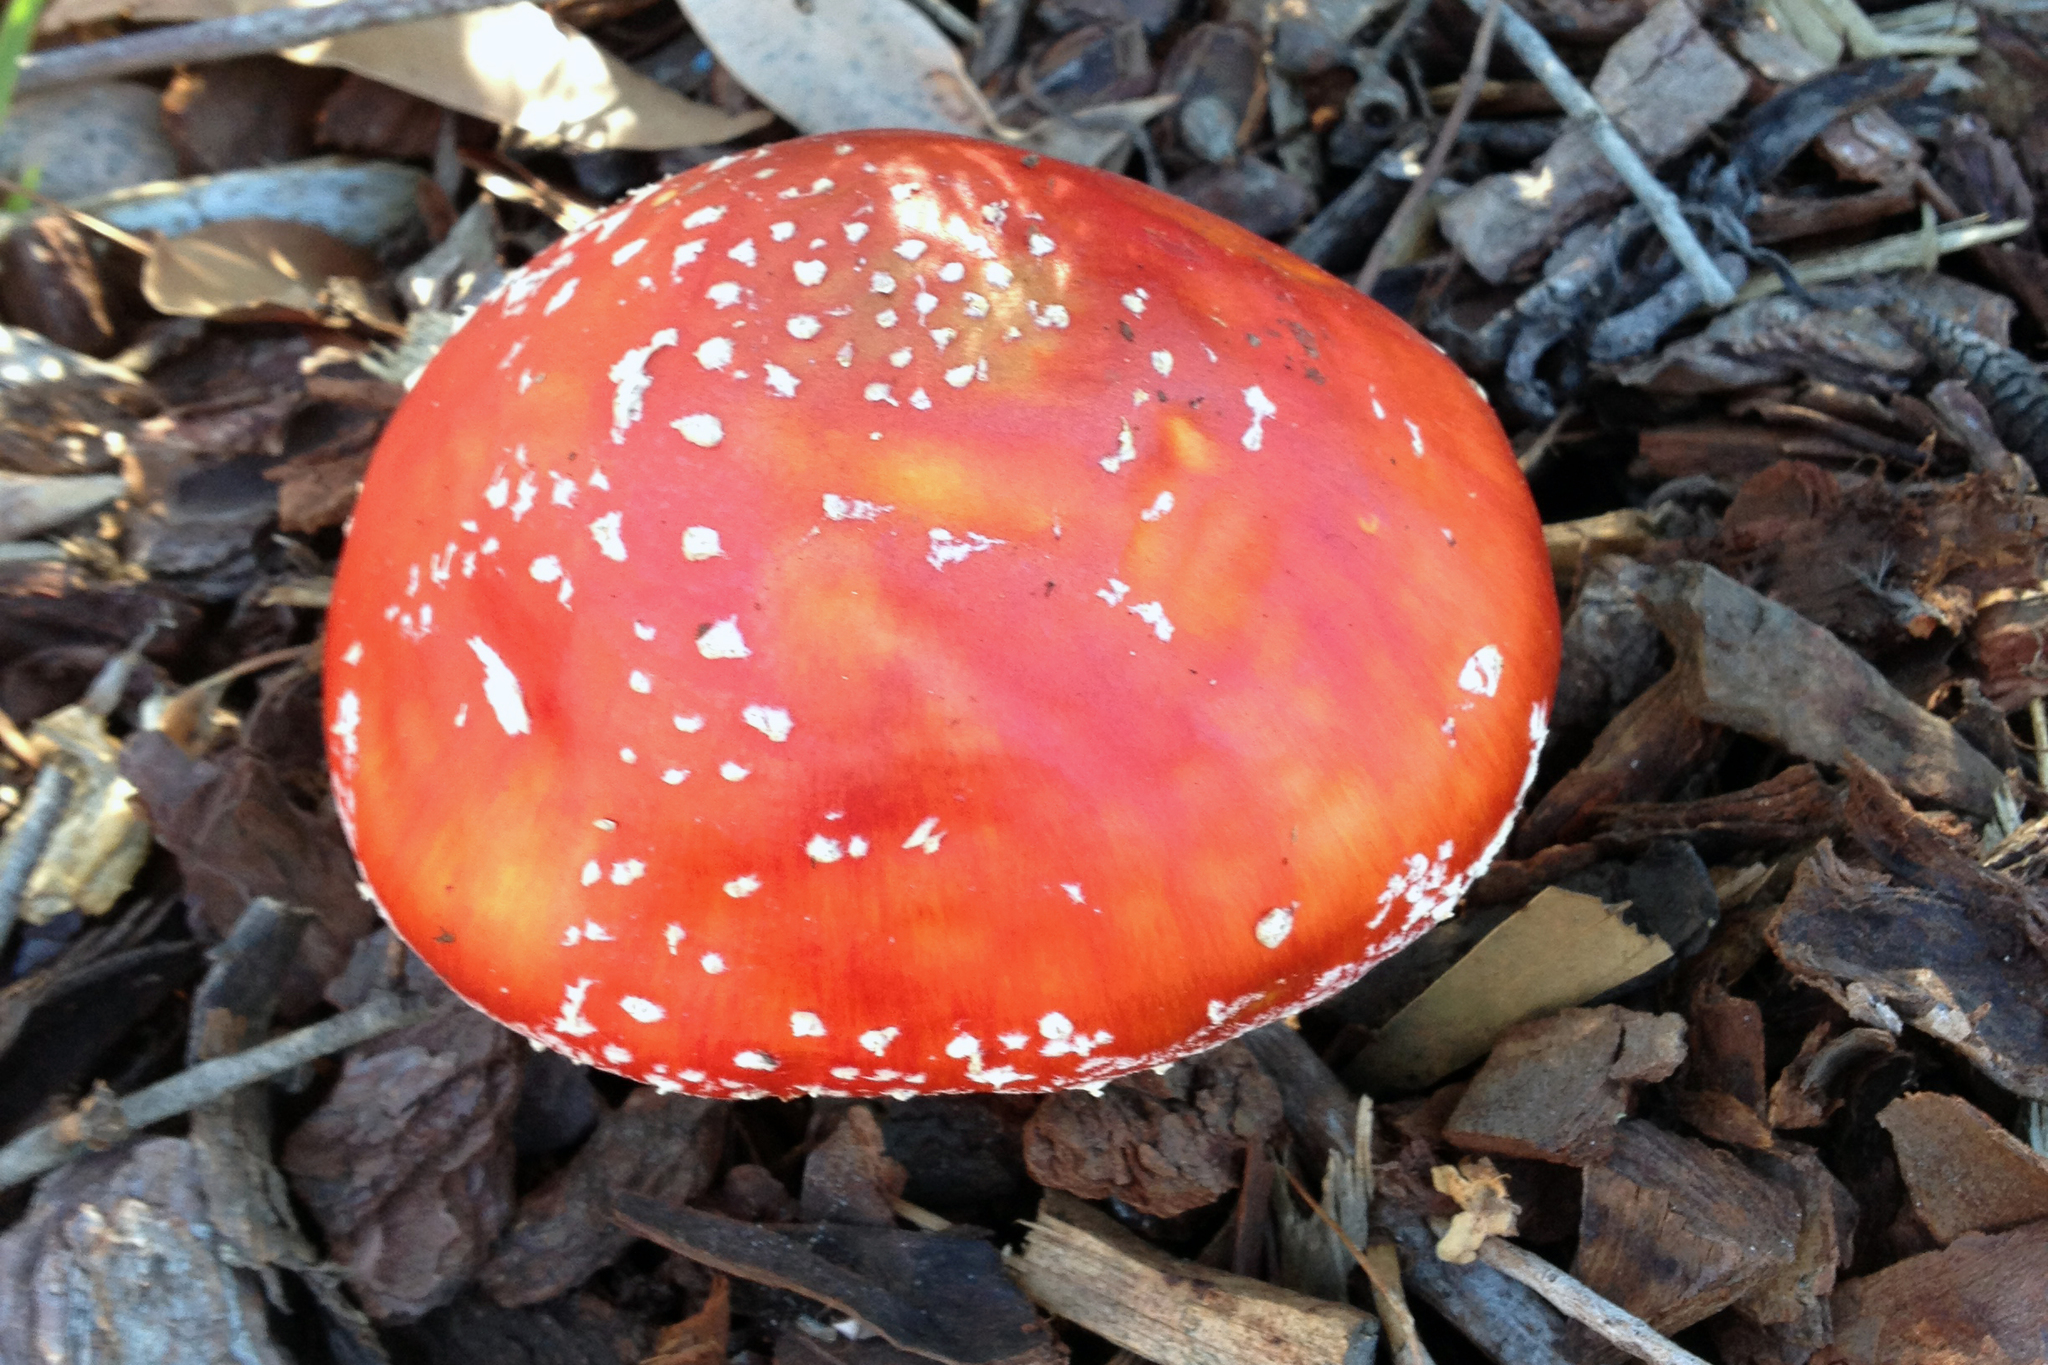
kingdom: Fungi
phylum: Basidiomycota
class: Agaricomycetes
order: Agaricales
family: Amanitaceae
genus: Amanita
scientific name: Amanita muscaria
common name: Fly agaric
